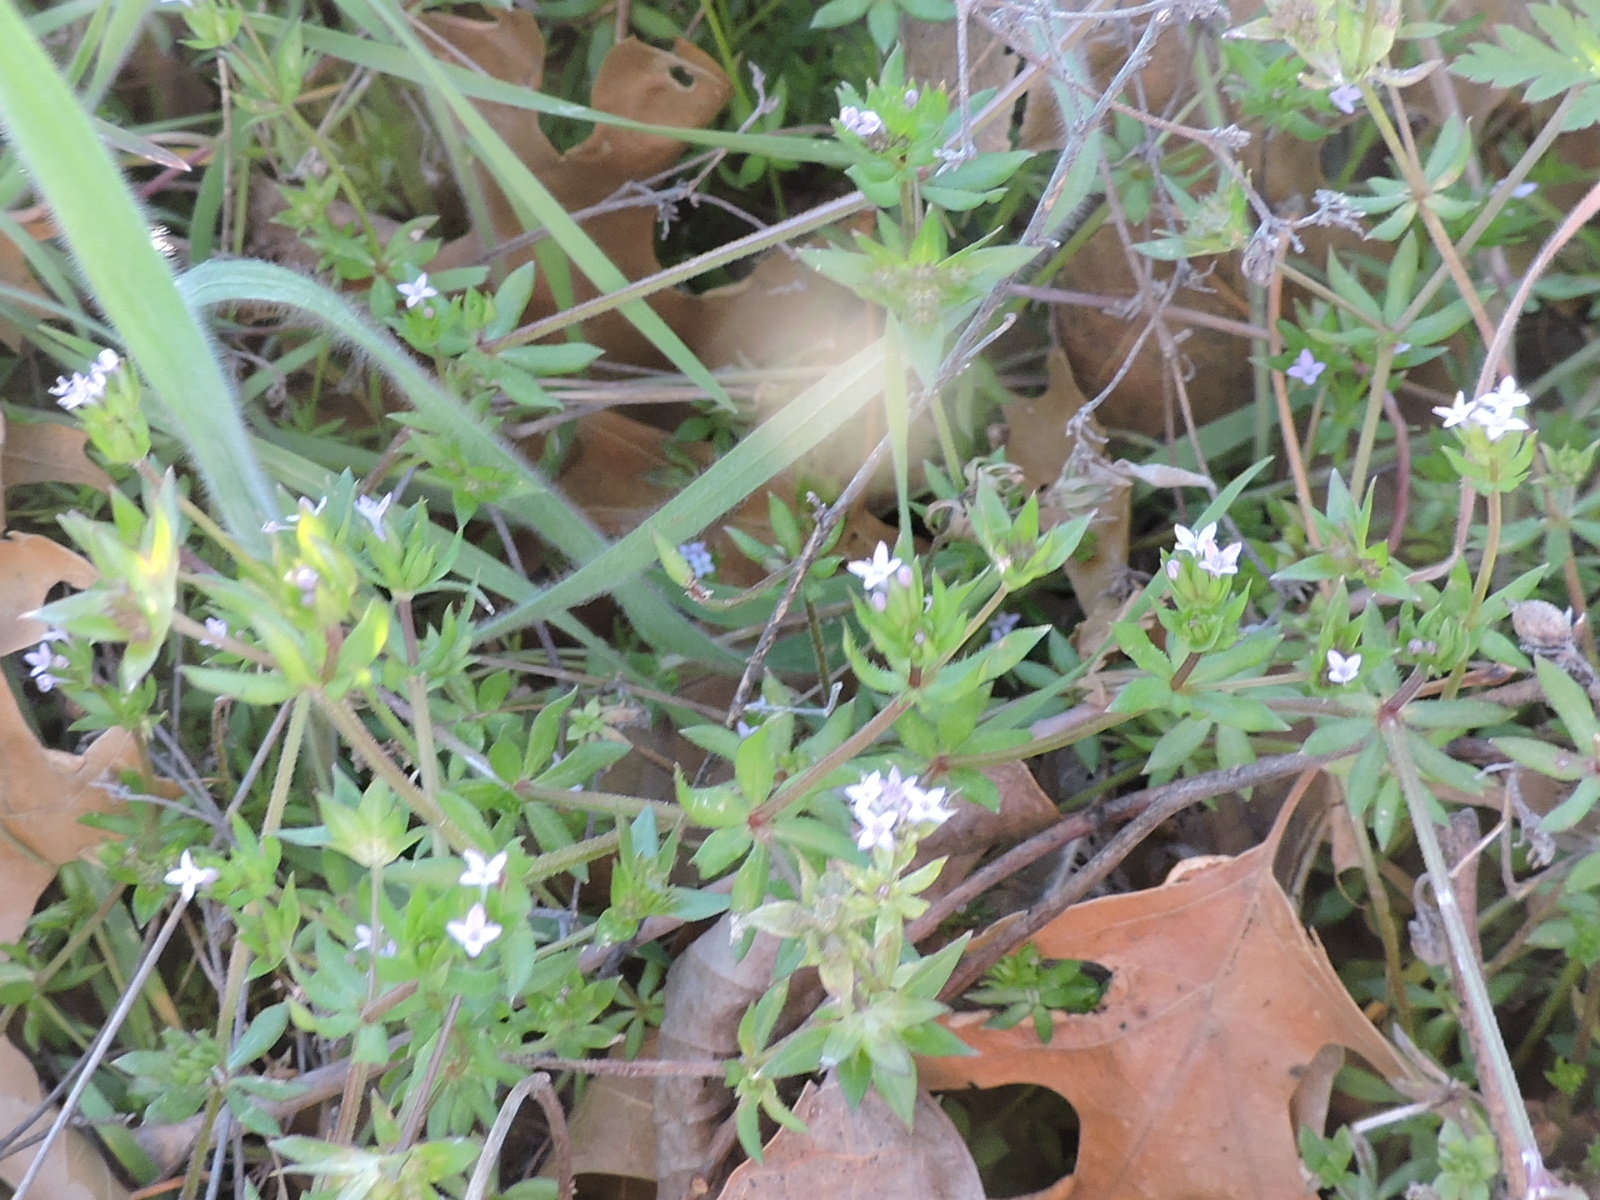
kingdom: Plantae
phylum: Tracheophyta
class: Magnoliopsida
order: Gentianales
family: Rubiaceae
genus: Sherardia
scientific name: Sherardia arvensis
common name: Field madder
